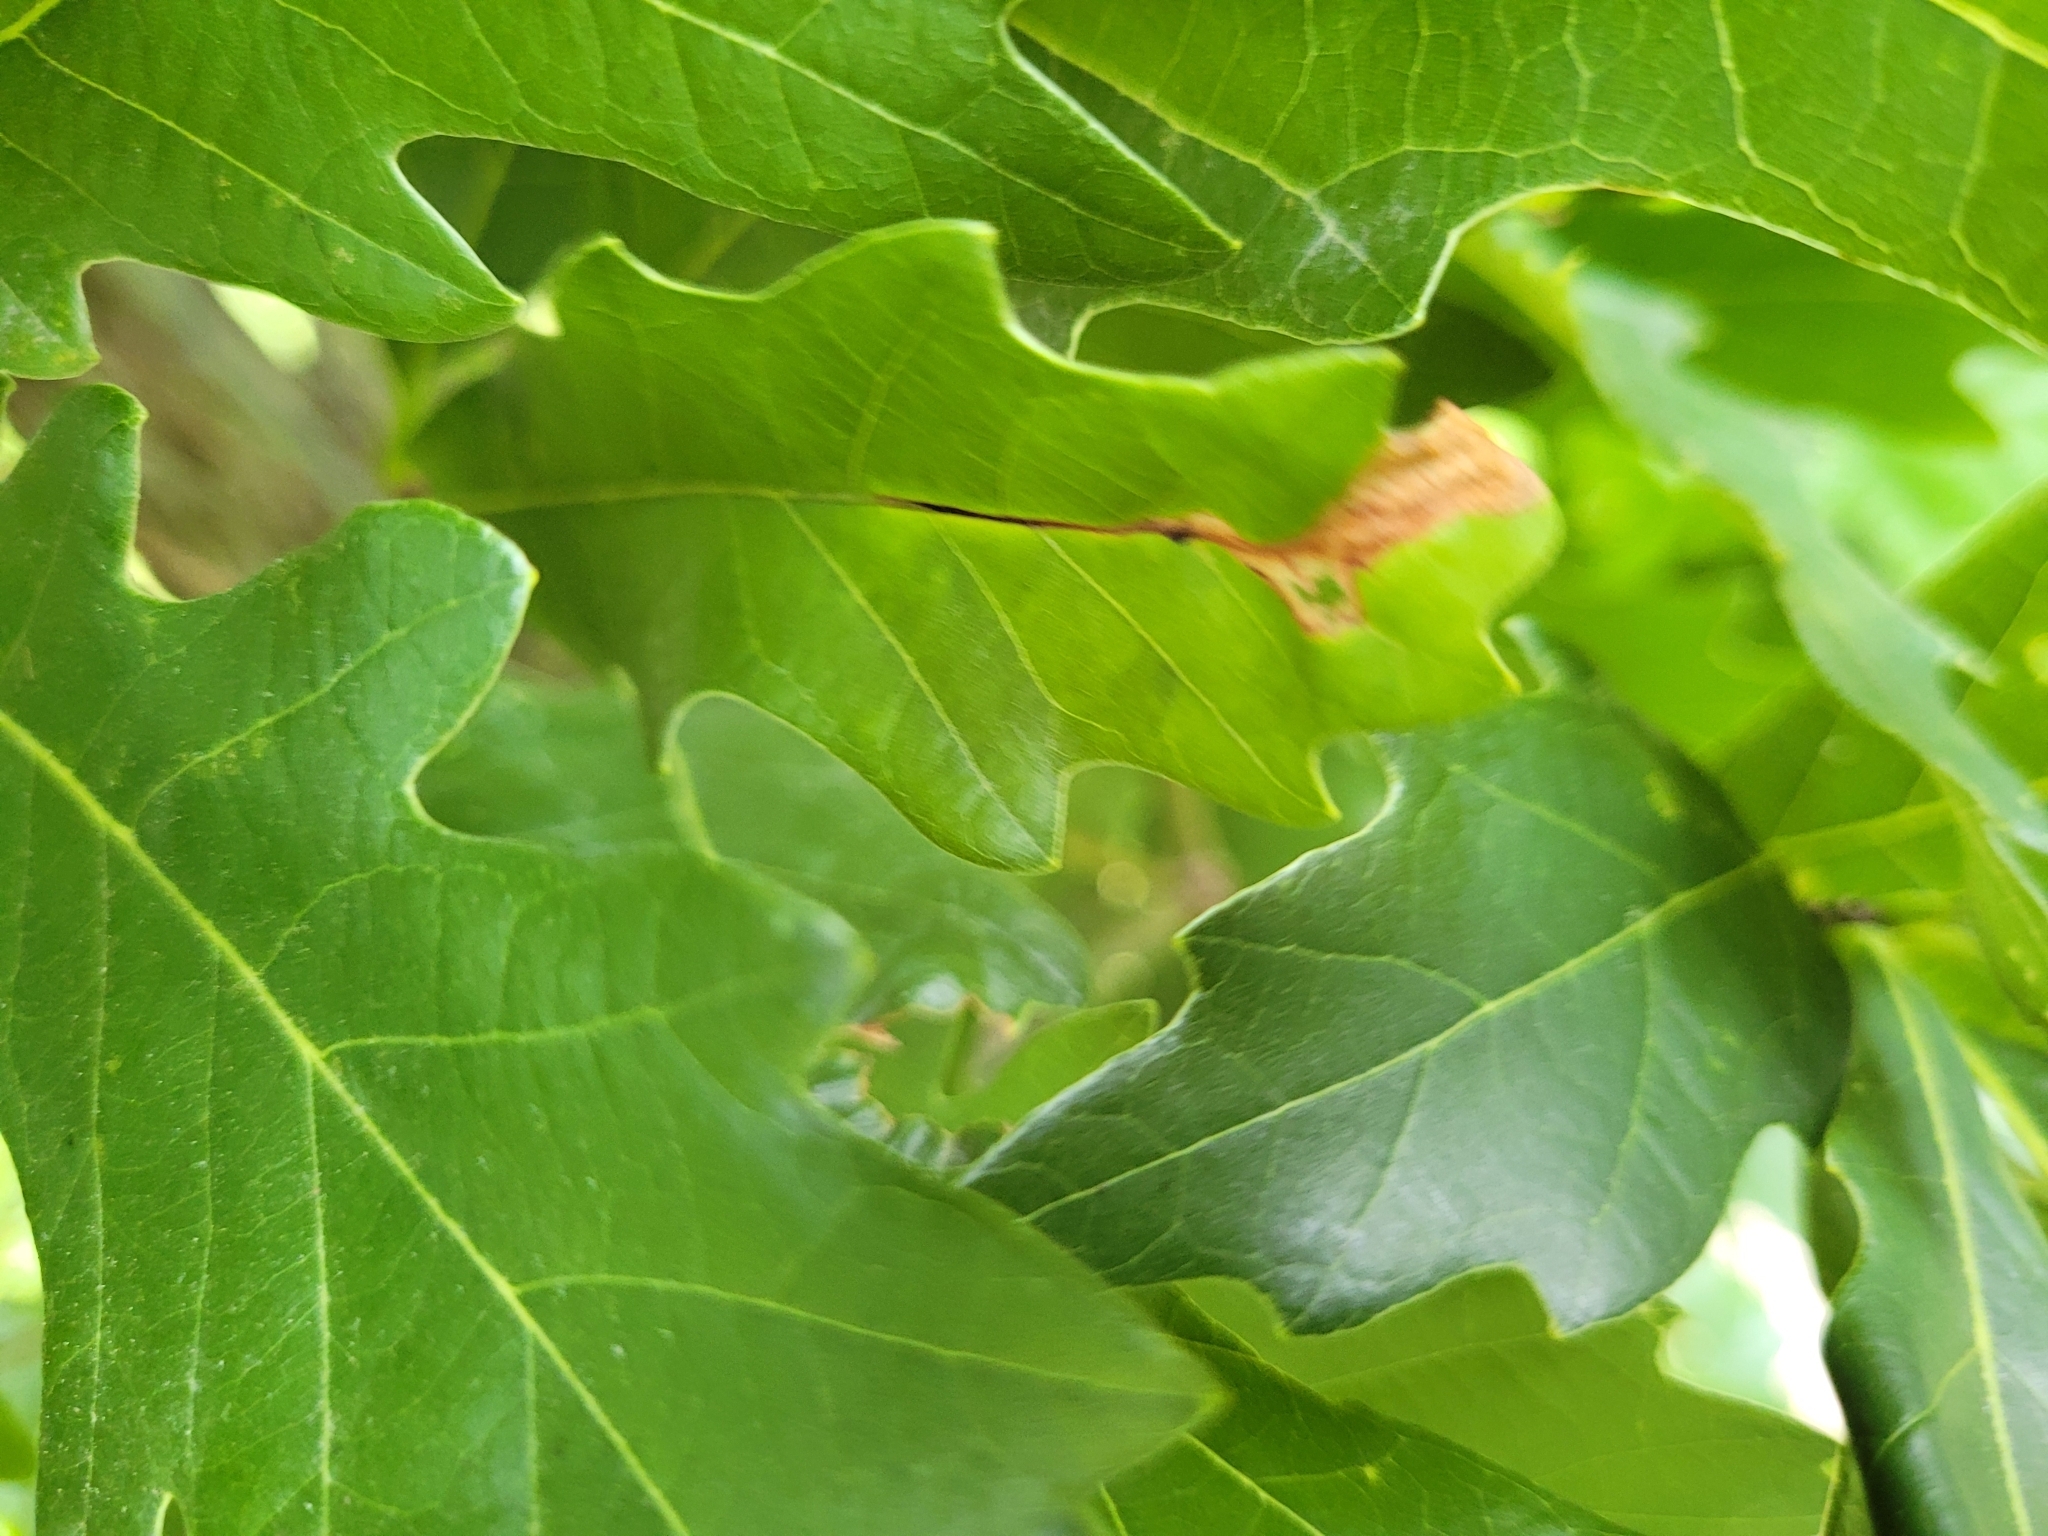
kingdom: Animalia
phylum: Arthropoda
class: Insecta
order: Lepidoptera
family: Gracillariidae
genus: Neurobathra
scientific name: Neurobathra strigifinitella
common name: Finite-channeled leafminer moth
